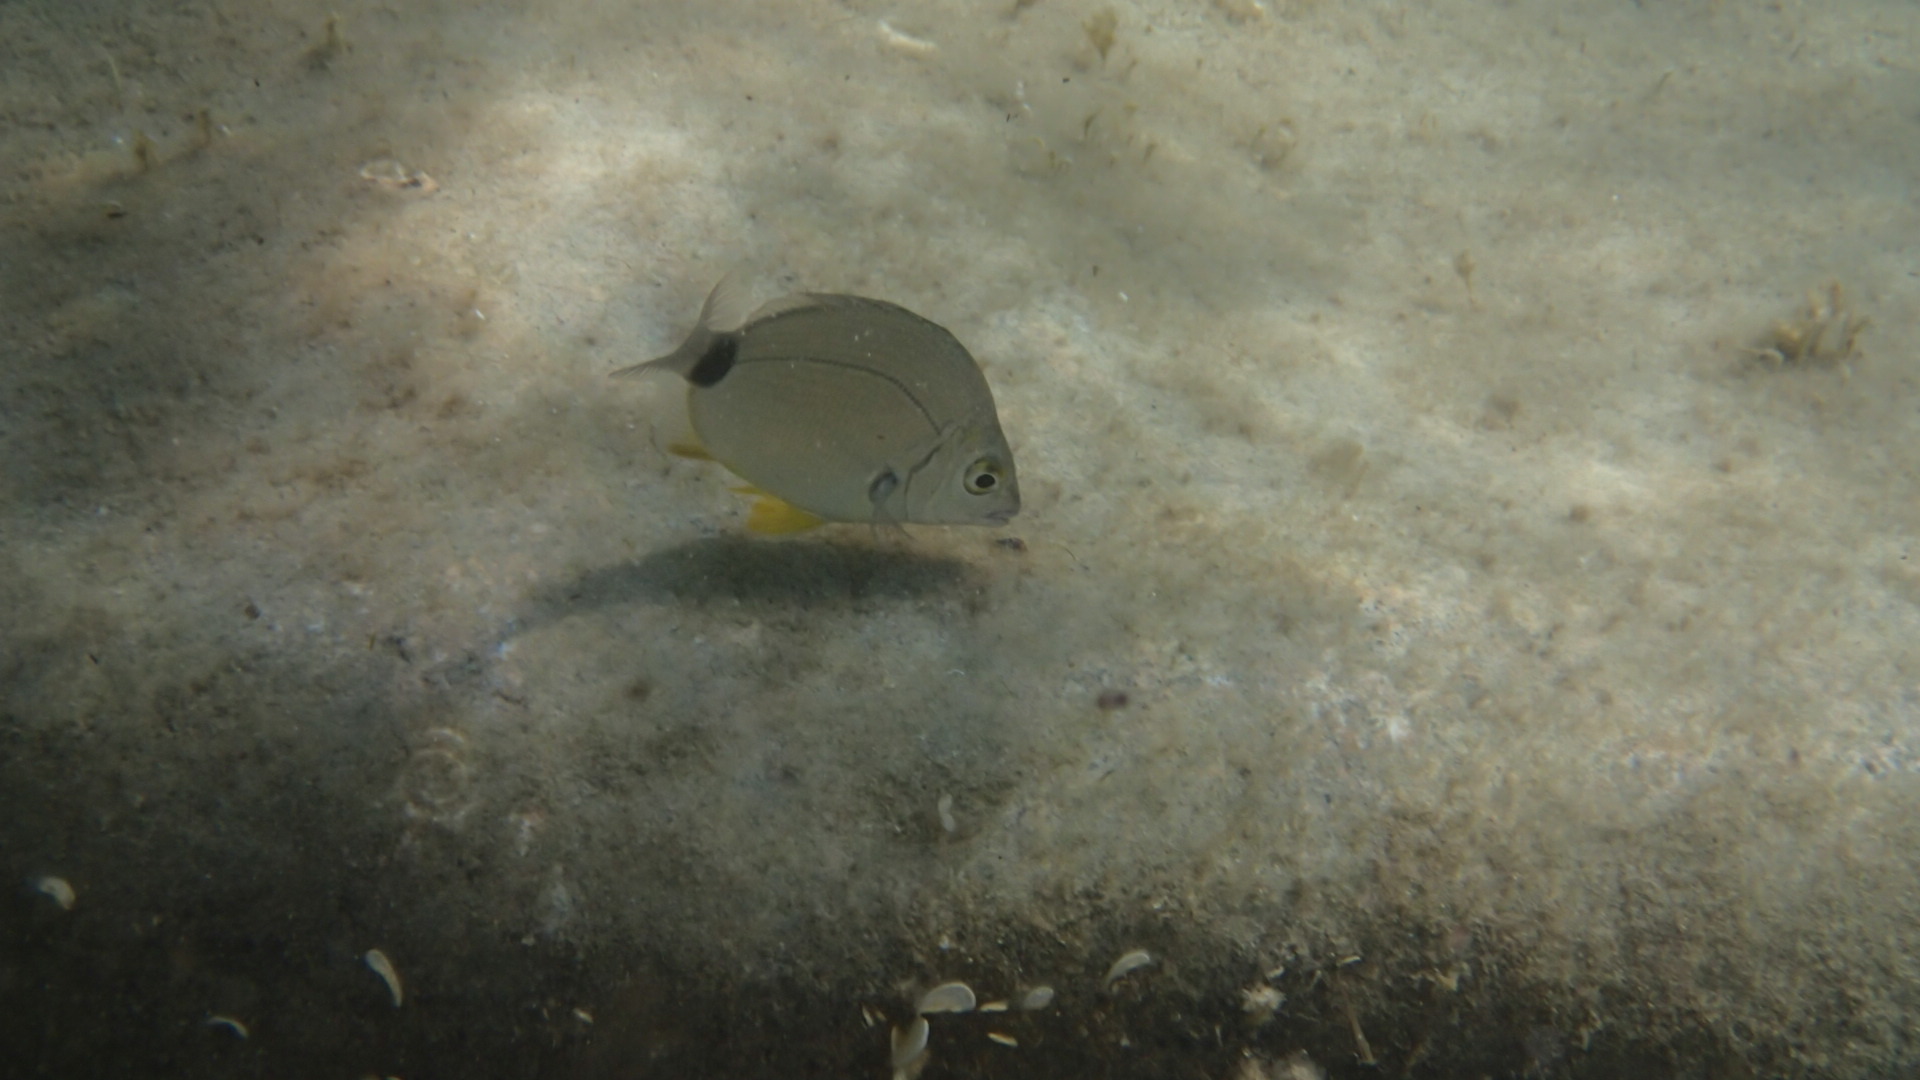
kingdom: Animalia
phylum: Chordata
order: Perciformes
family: Sparidae
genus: Diplodus
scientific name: Diplodus annularis
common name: Annular seabream
